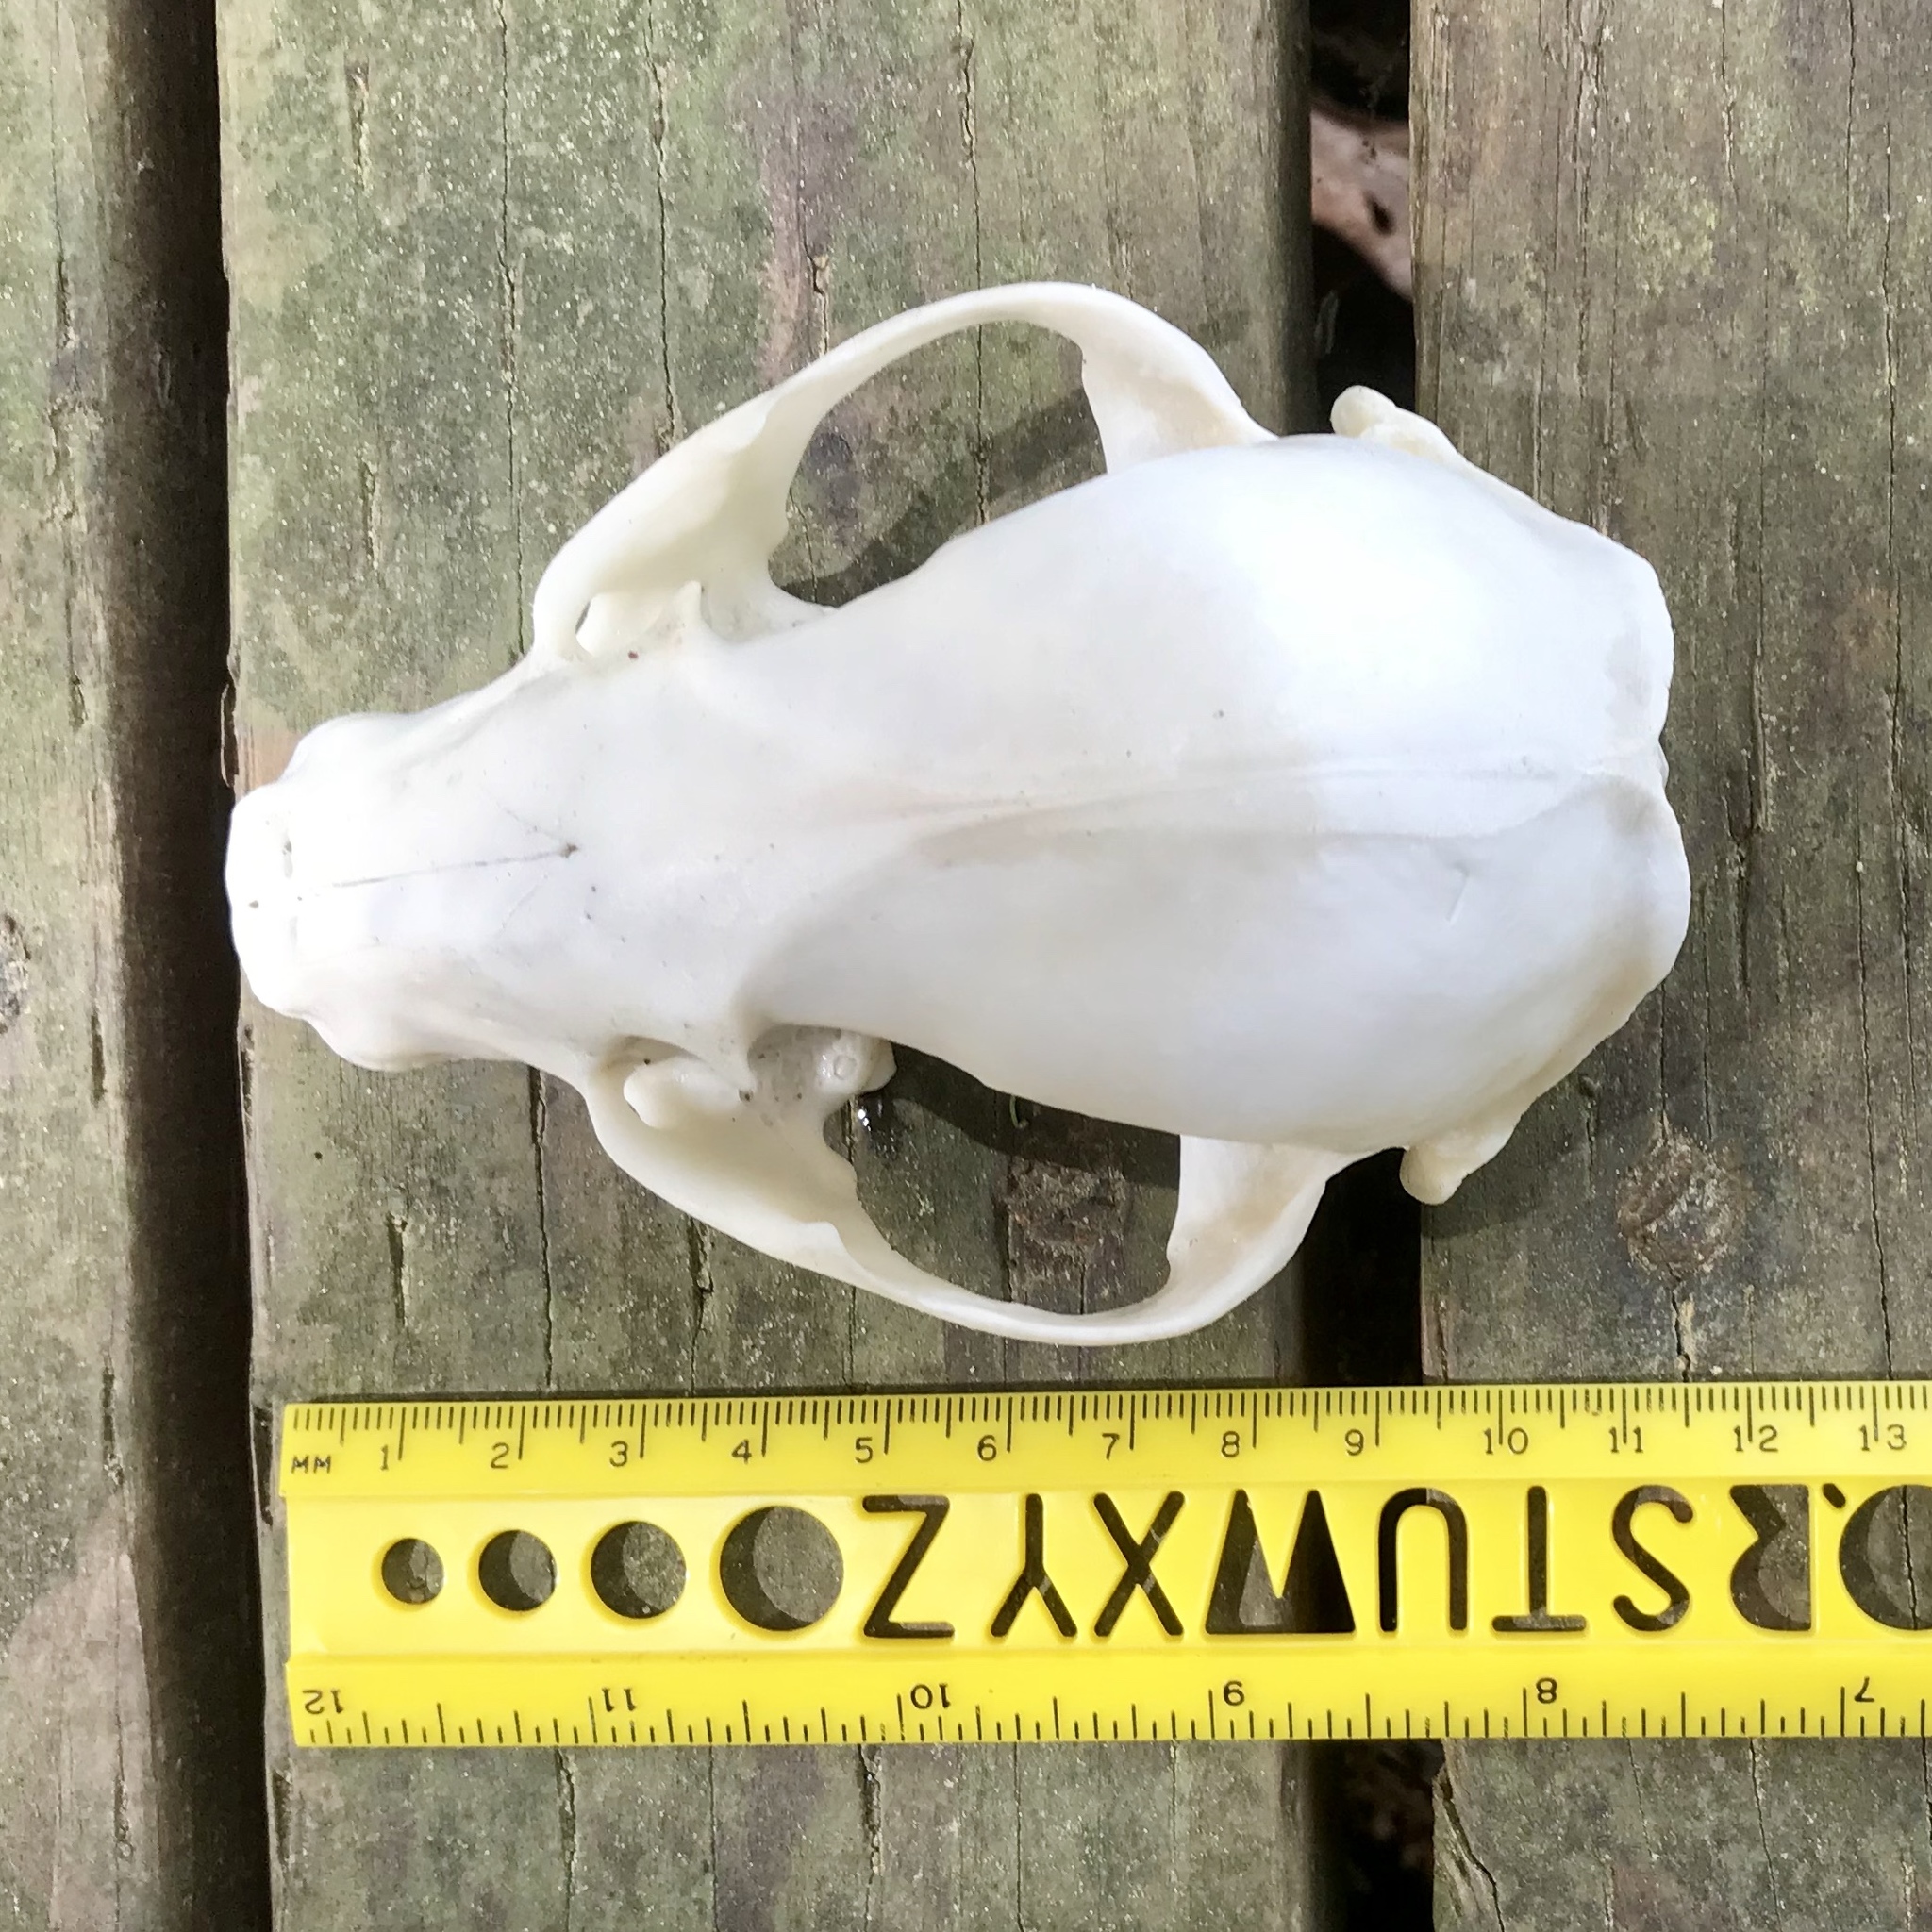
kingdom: Animalia
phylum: Chordata
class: Mammalia
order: Carnivora
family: Procyonidae
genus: Procyon
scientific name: Procyon lotor
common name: Raccoon
